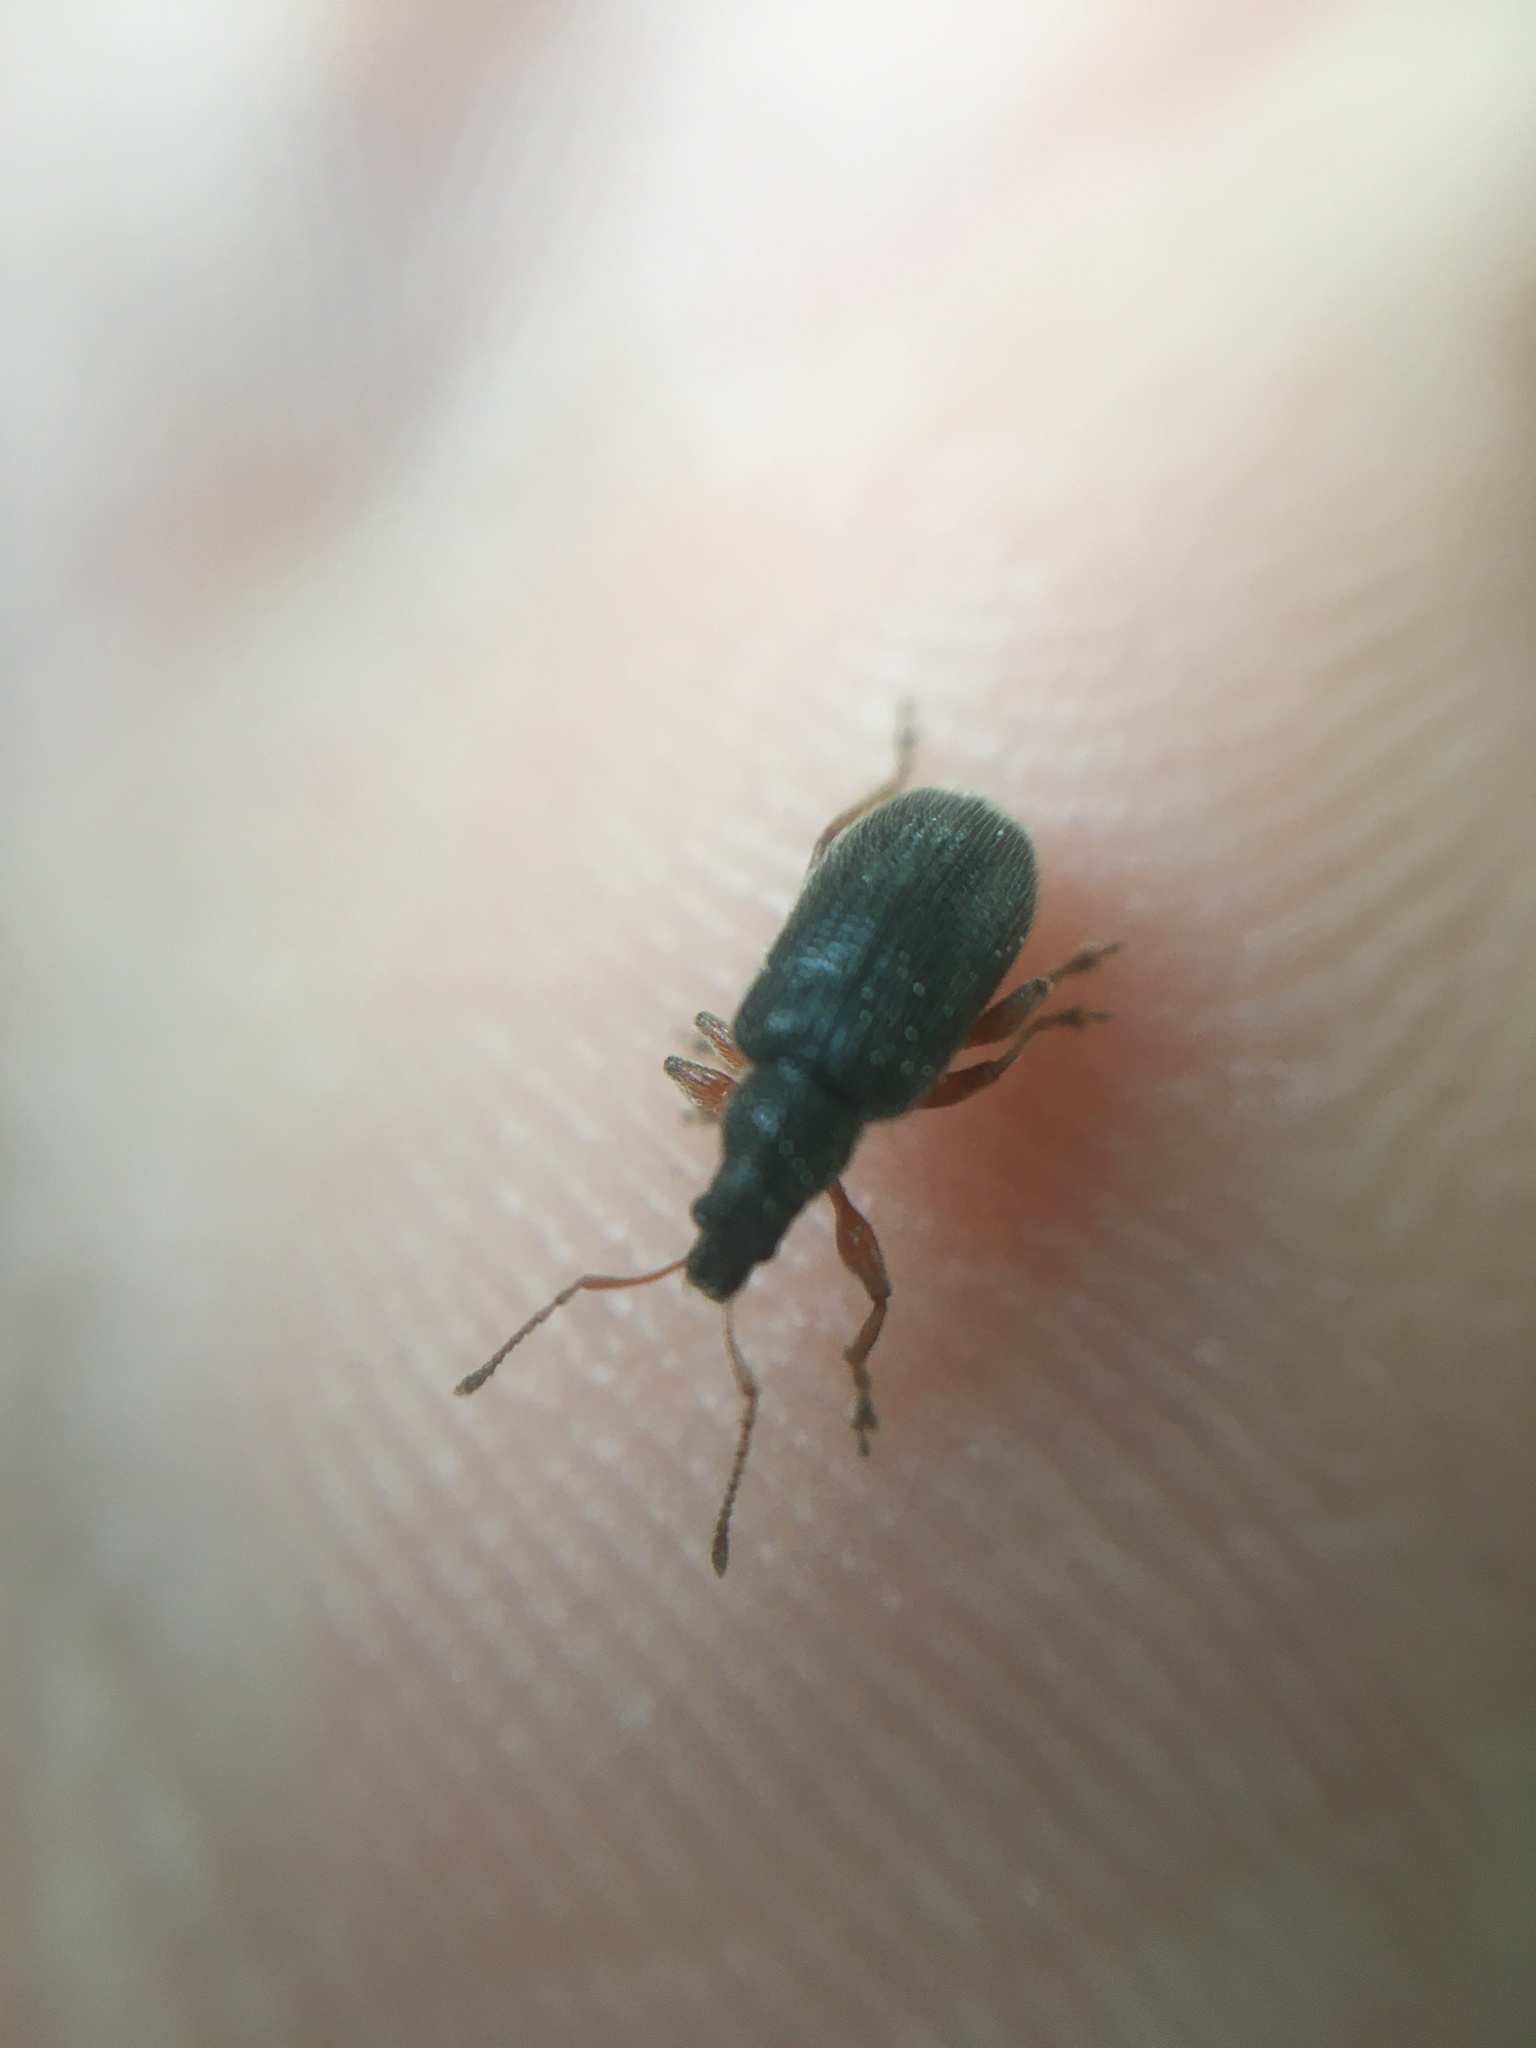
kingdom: Animalia
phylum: Arthropoda
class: Insecta
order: Coleoptera
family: Curculionidae
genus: Phyllobius
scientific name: Phyllobius oblongus
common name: Brown leaf weevil
